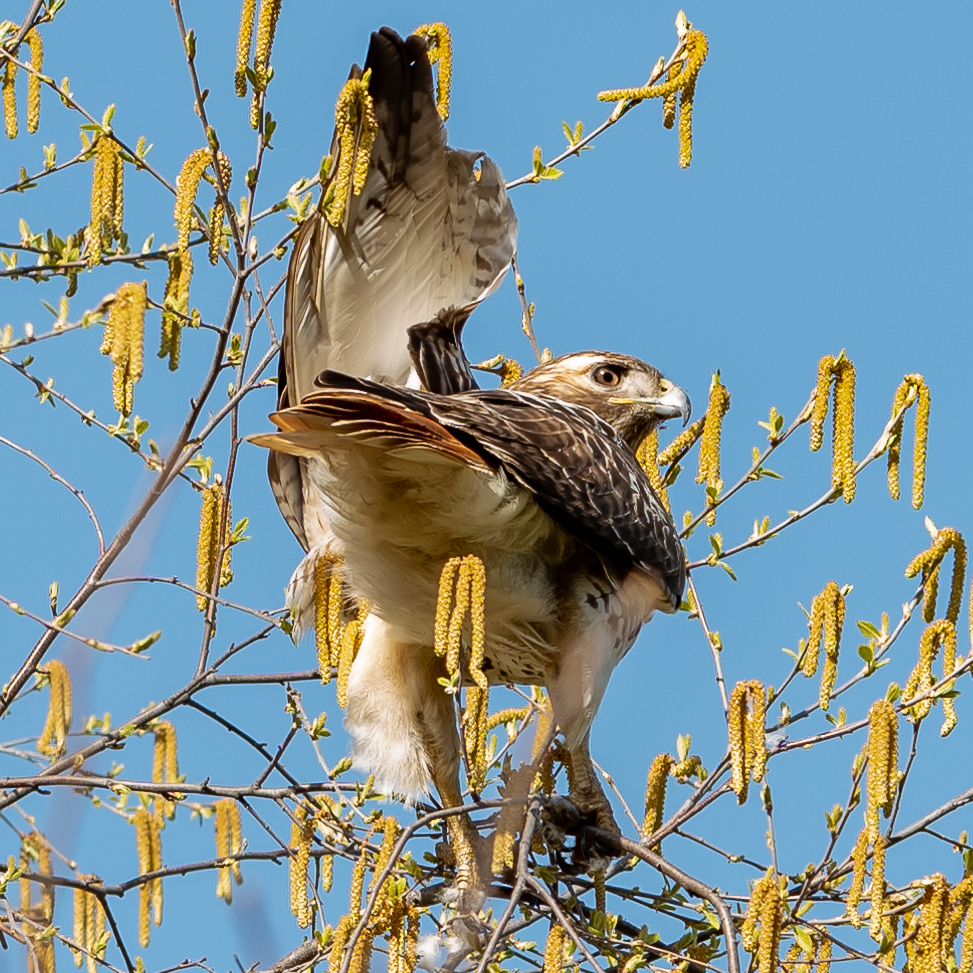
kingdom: Animalia
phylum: Chordata
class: Aves
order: Accipitriformes
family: Accipitridae
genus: Buteo
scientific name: Buteo jamaicensis
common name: Red-tailed hawk
